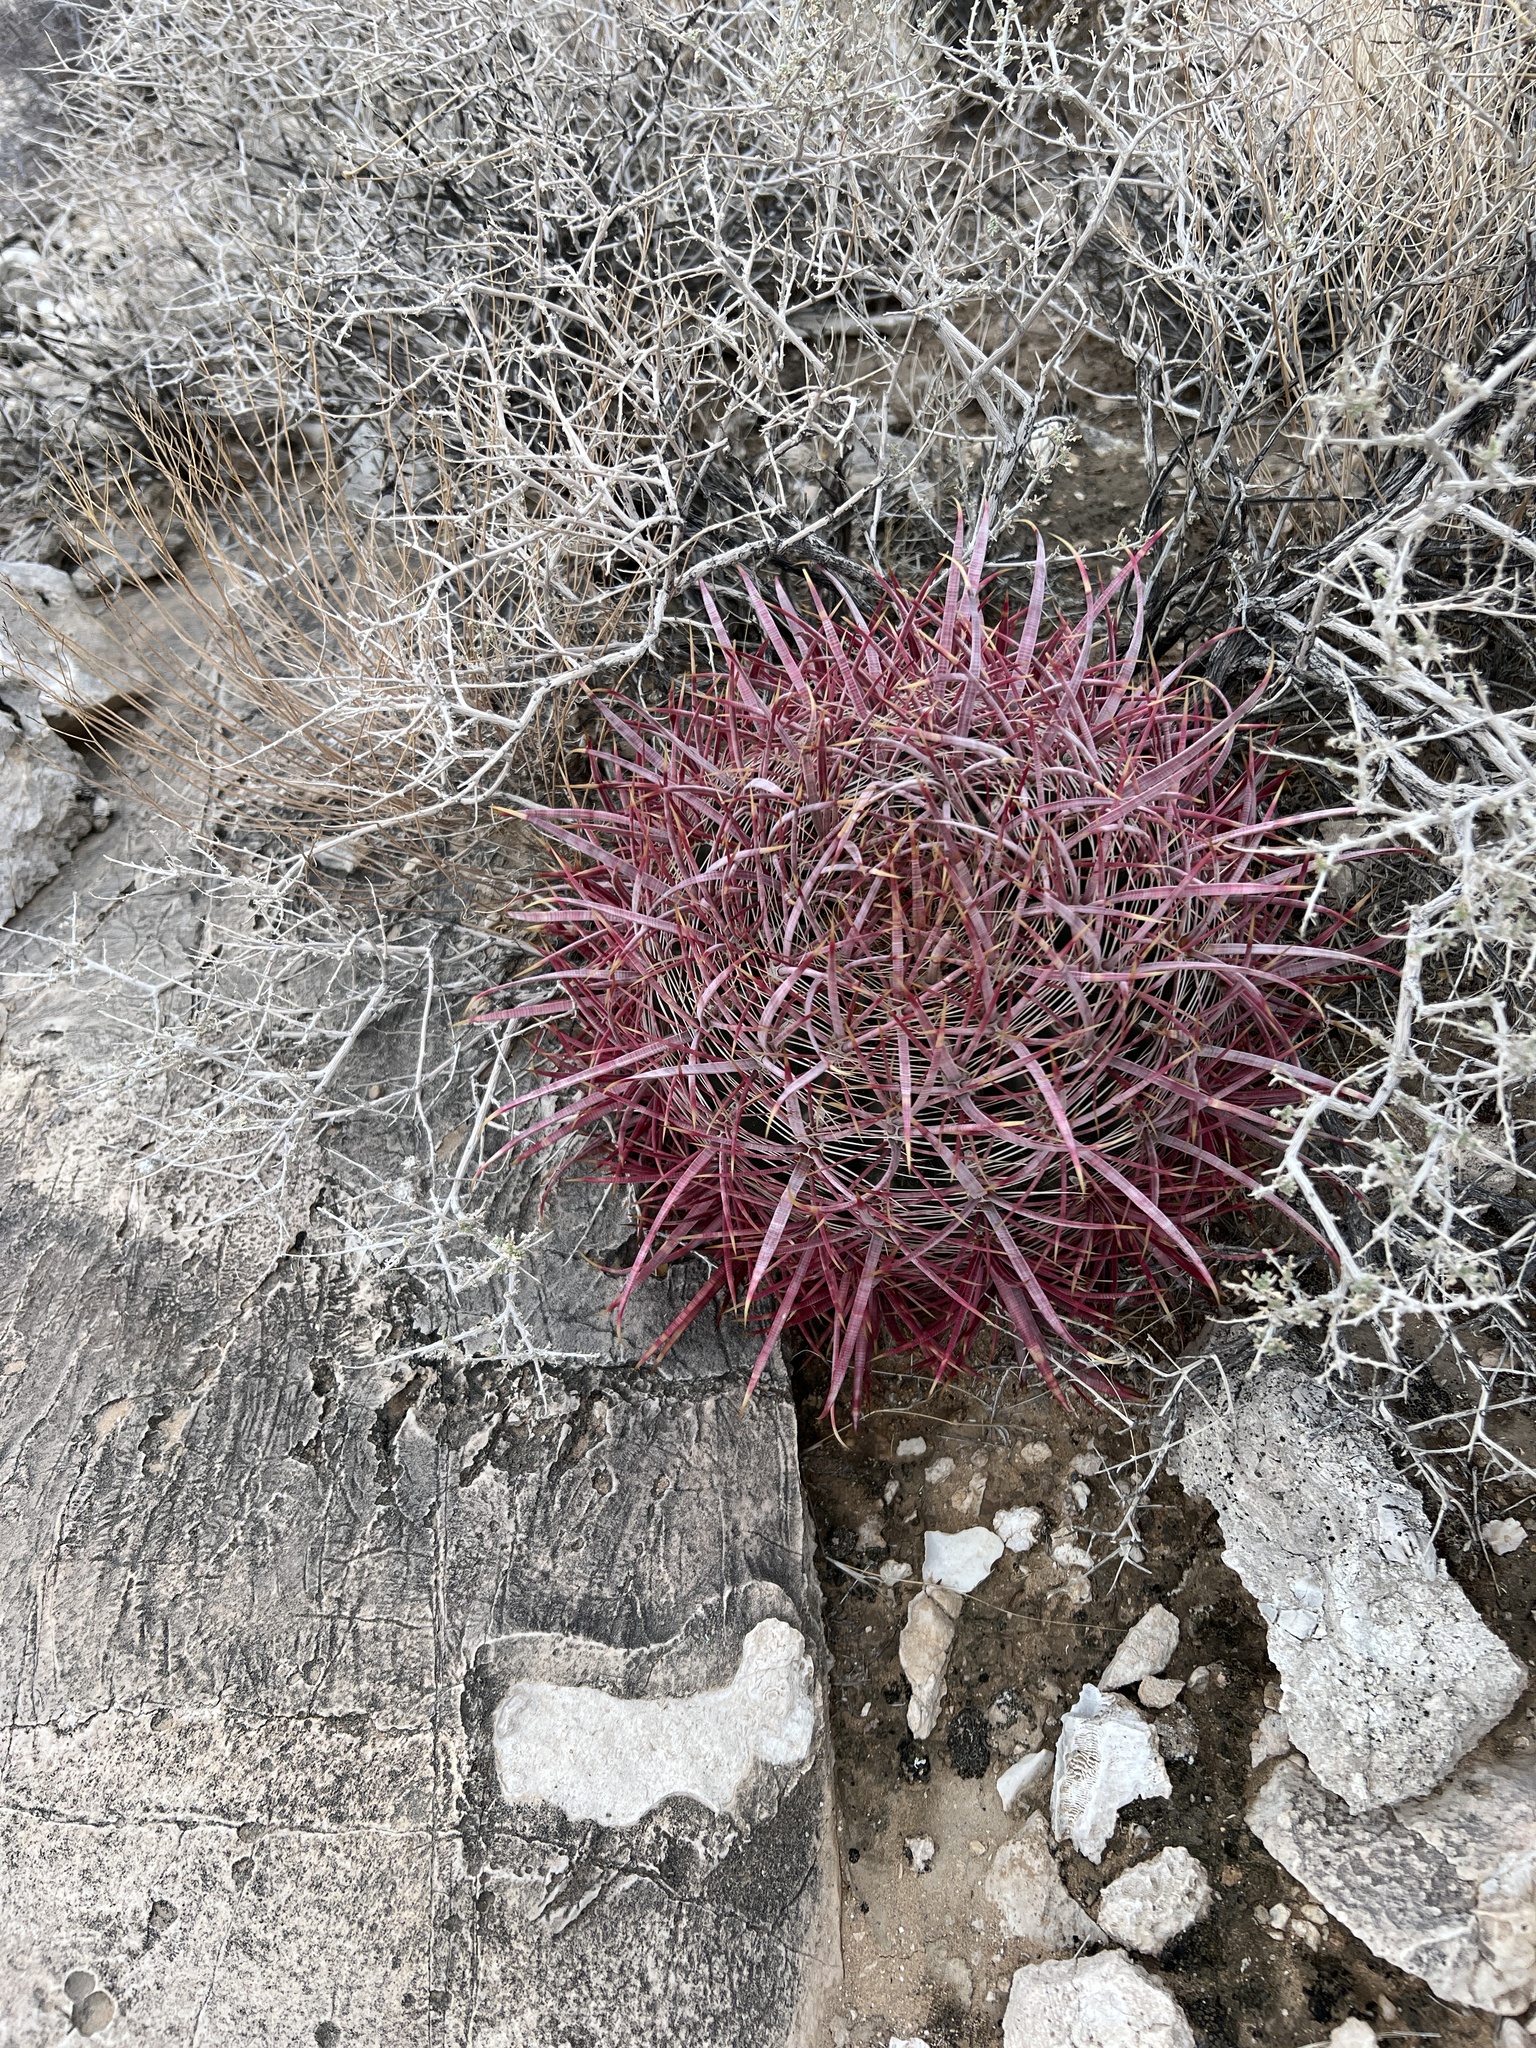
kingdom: Plantae
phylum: Tracheophyta
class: Magnoliopsida
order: Caryophyllales
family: Cactaceae
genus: Ferocactus
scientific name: Ferocactus cylindraceus
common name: California barrel cactus
